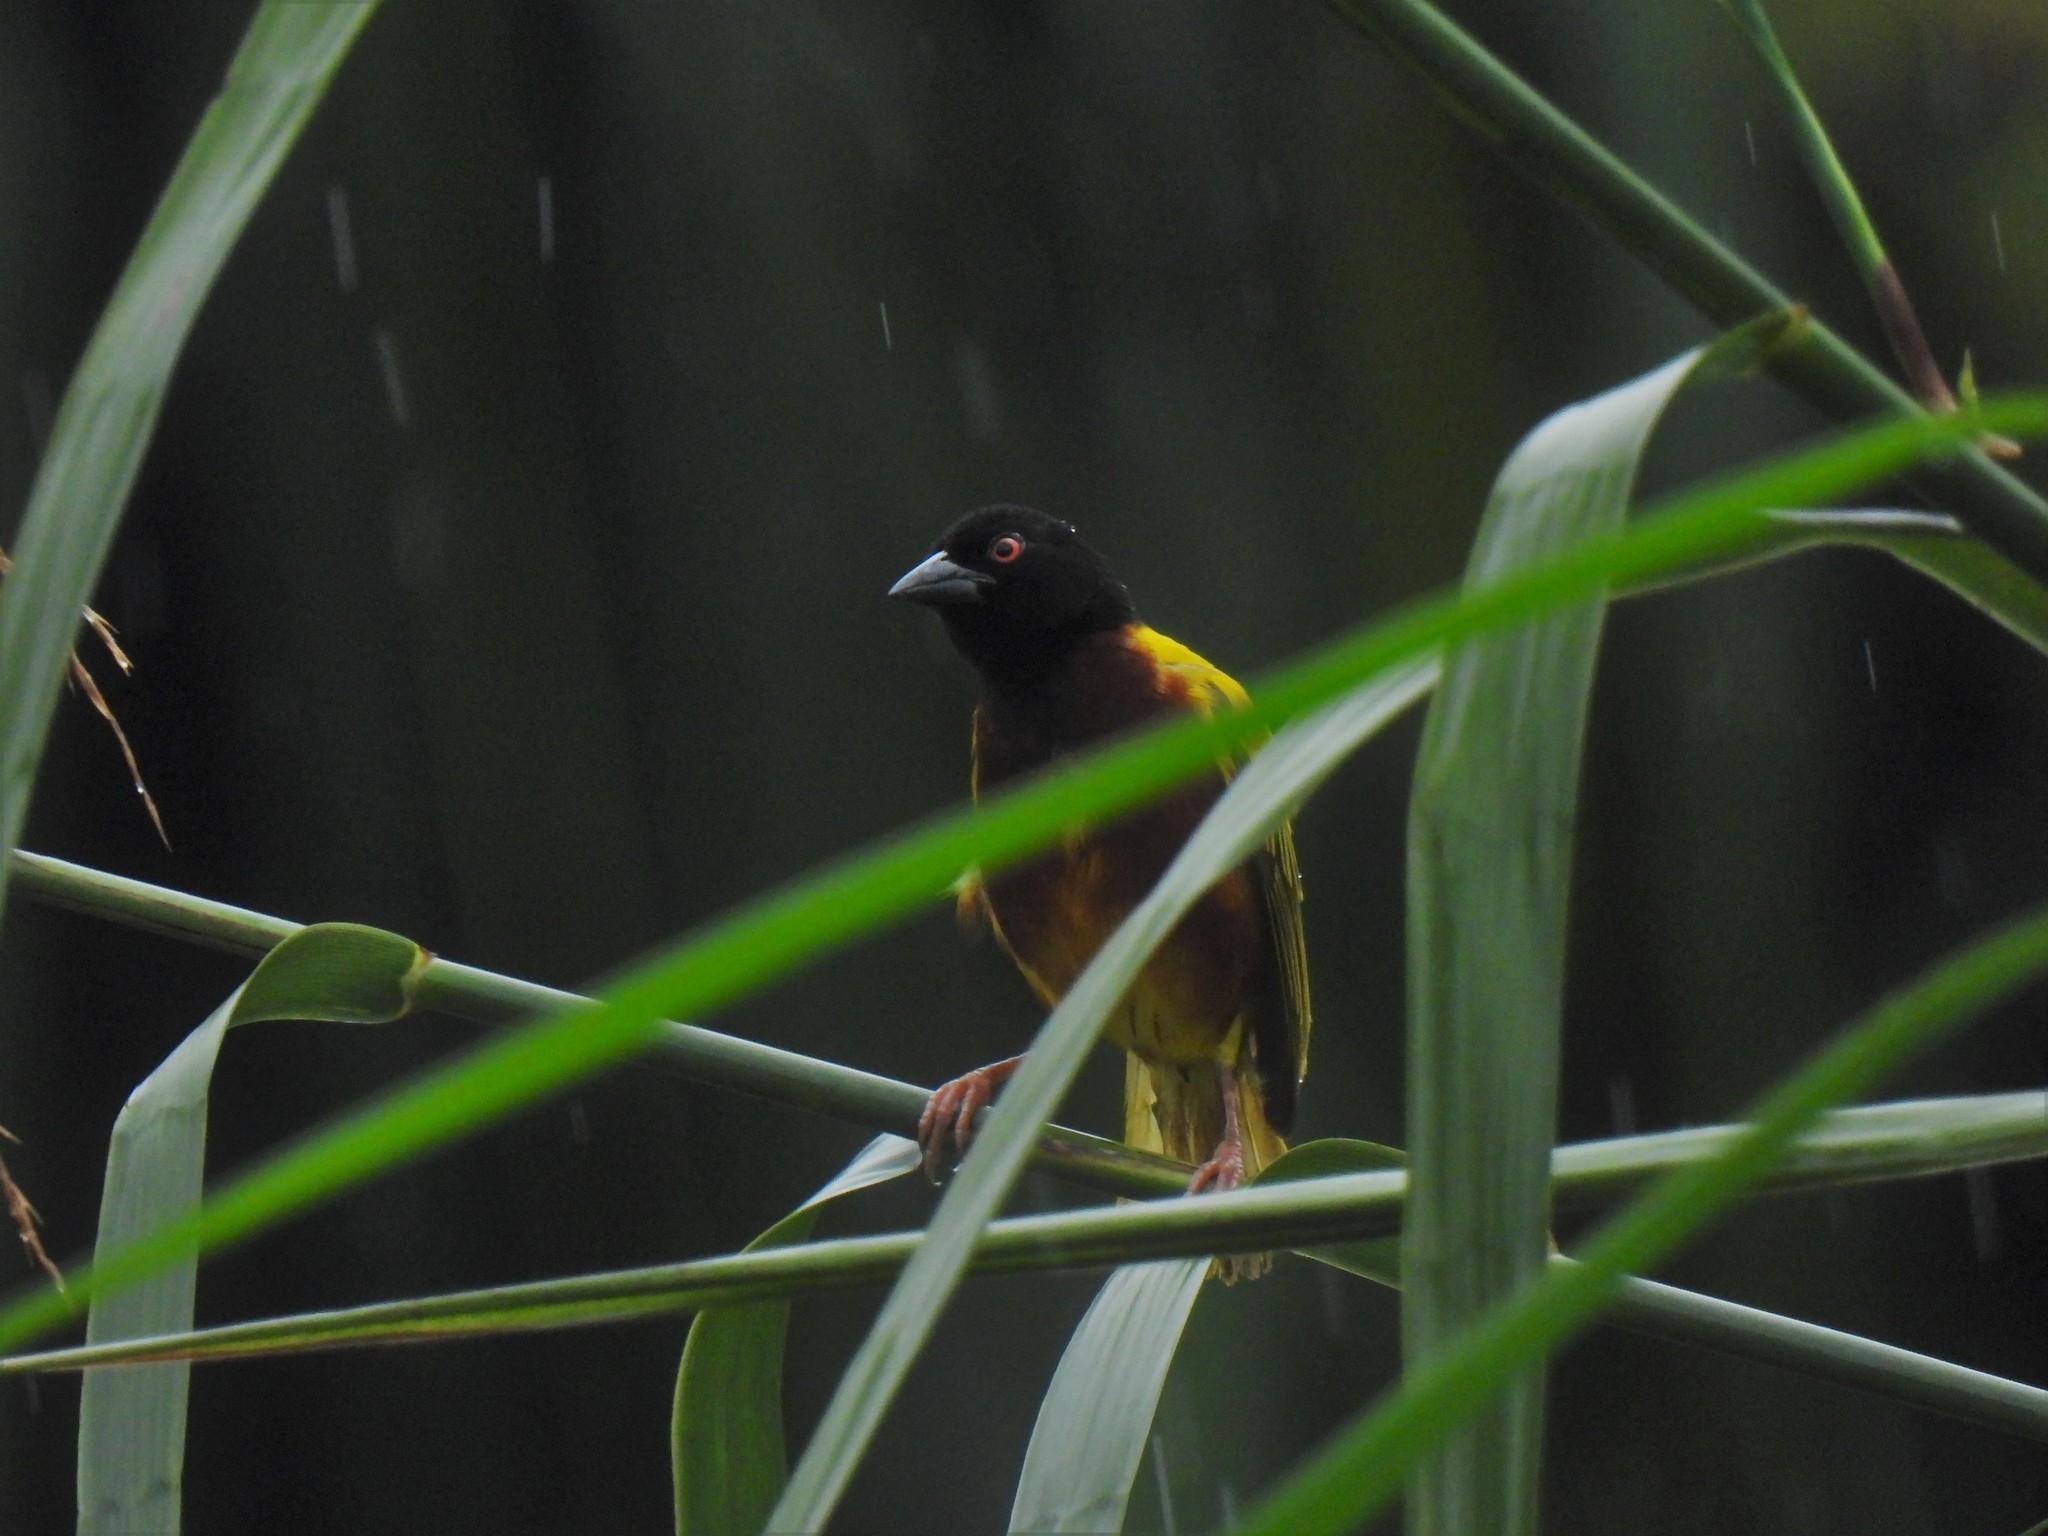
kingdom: Animalia
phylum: Chordata
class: Aves
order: Passeriformes
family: Ploceidae
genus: Ploceus
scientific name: Ploceus jacksoni
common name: Golden-backed weaver
